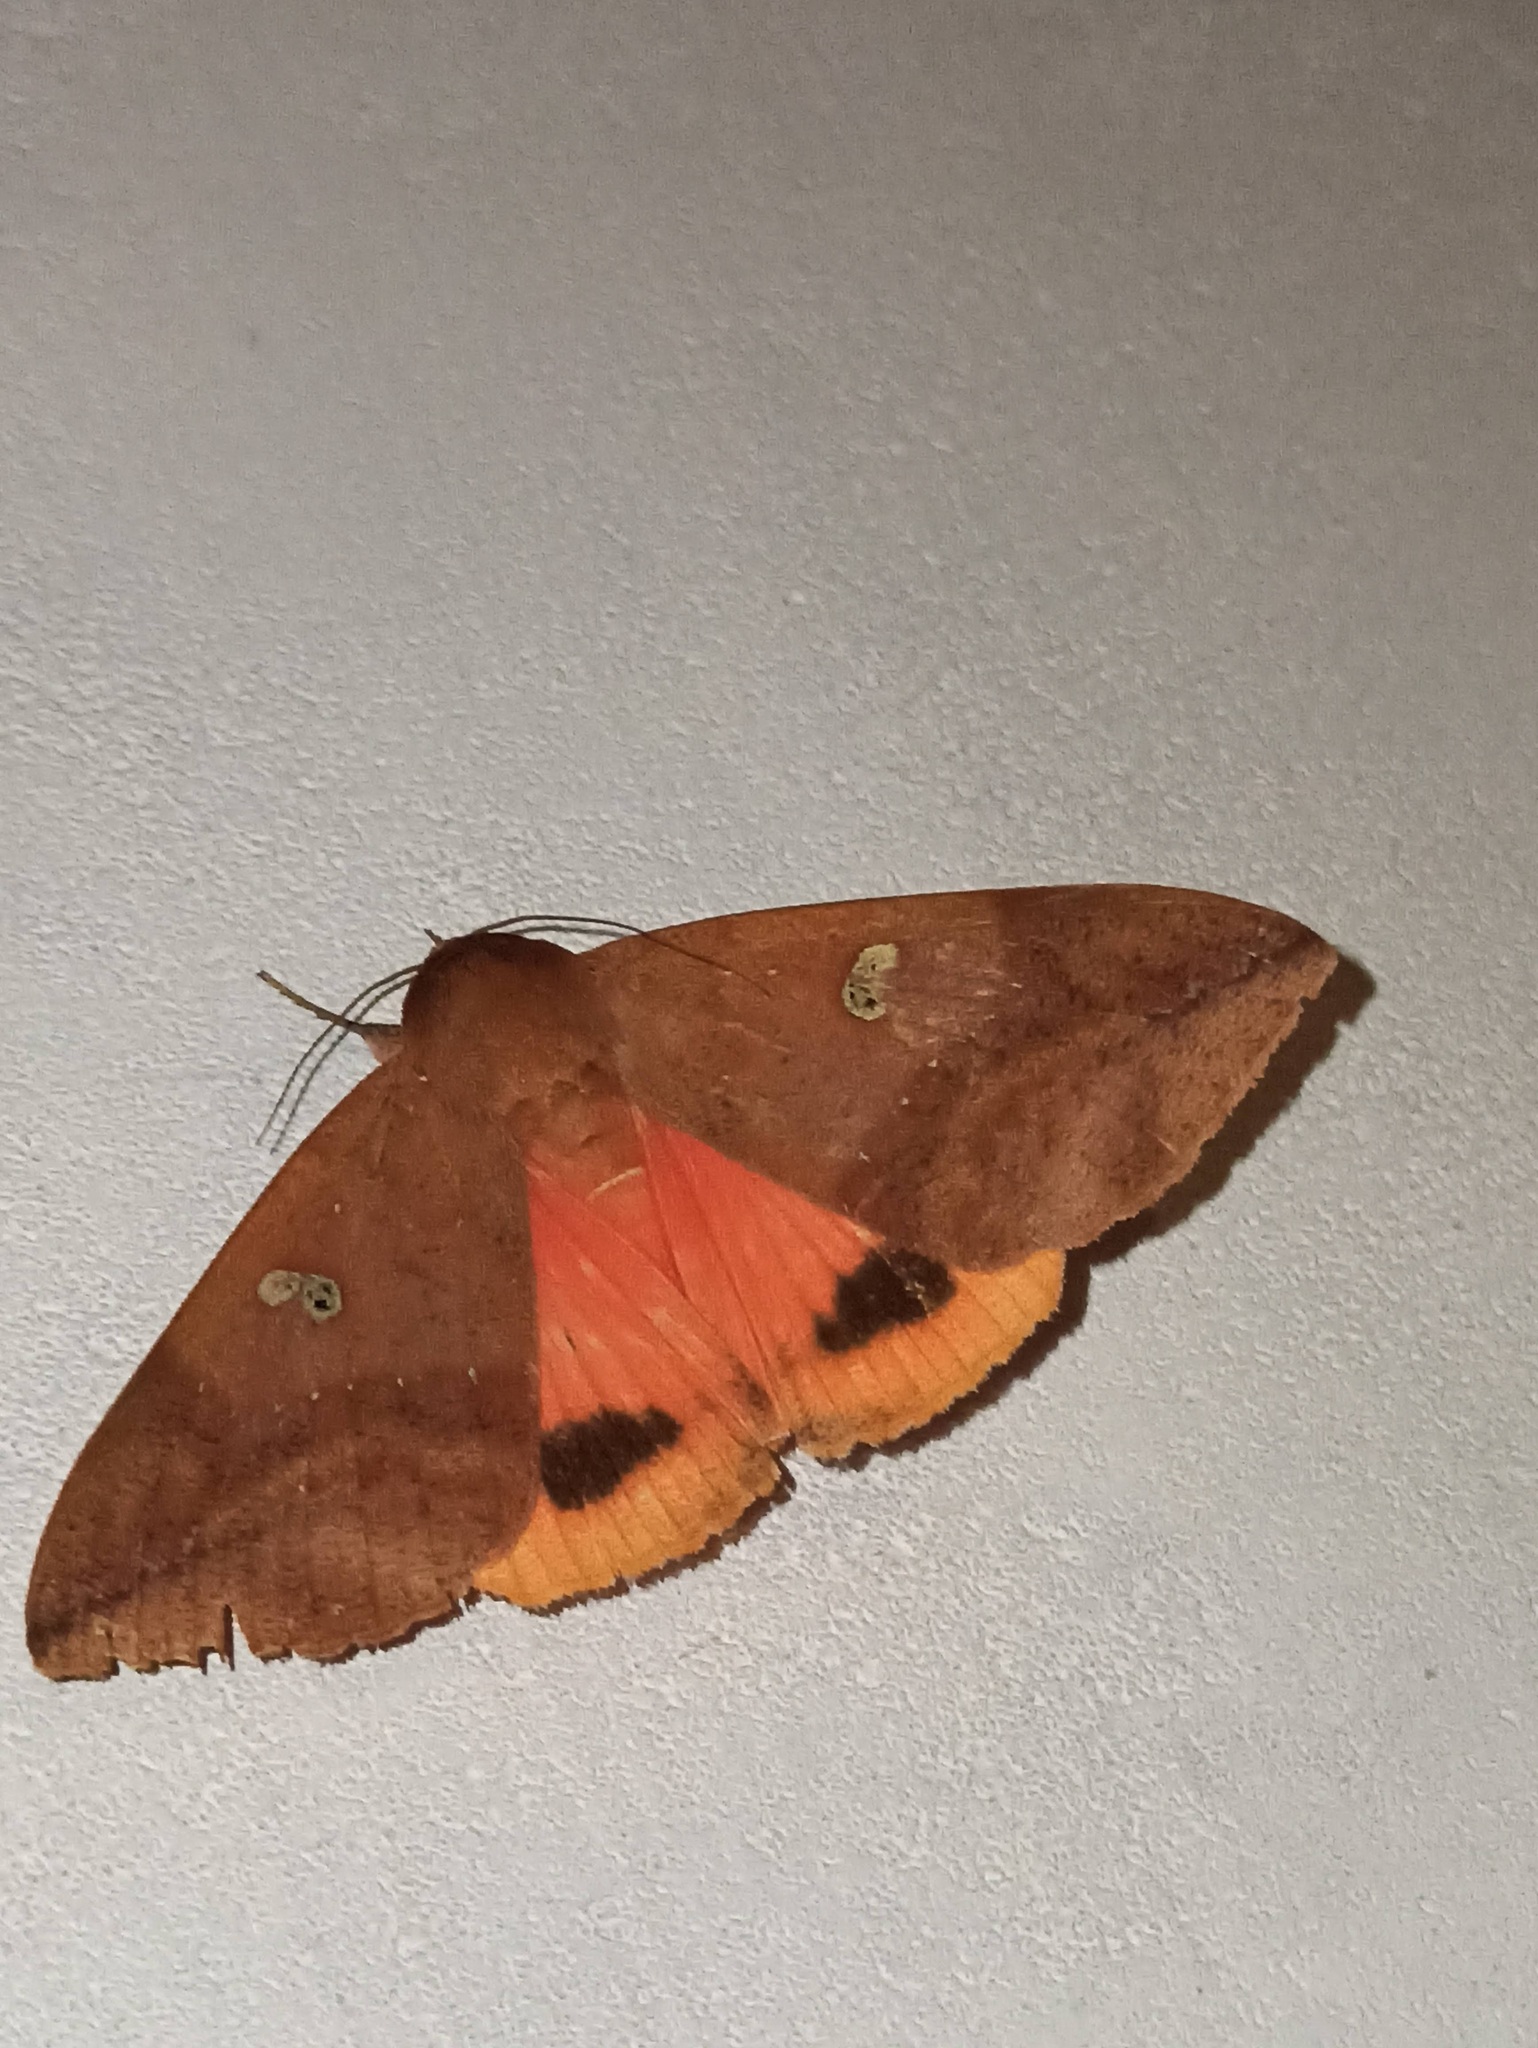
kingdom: Animalia
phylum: Arthropoda
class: Insecta
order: Lepidoptera
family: Erebidae
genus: Thyas
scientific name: Thyas honesta
